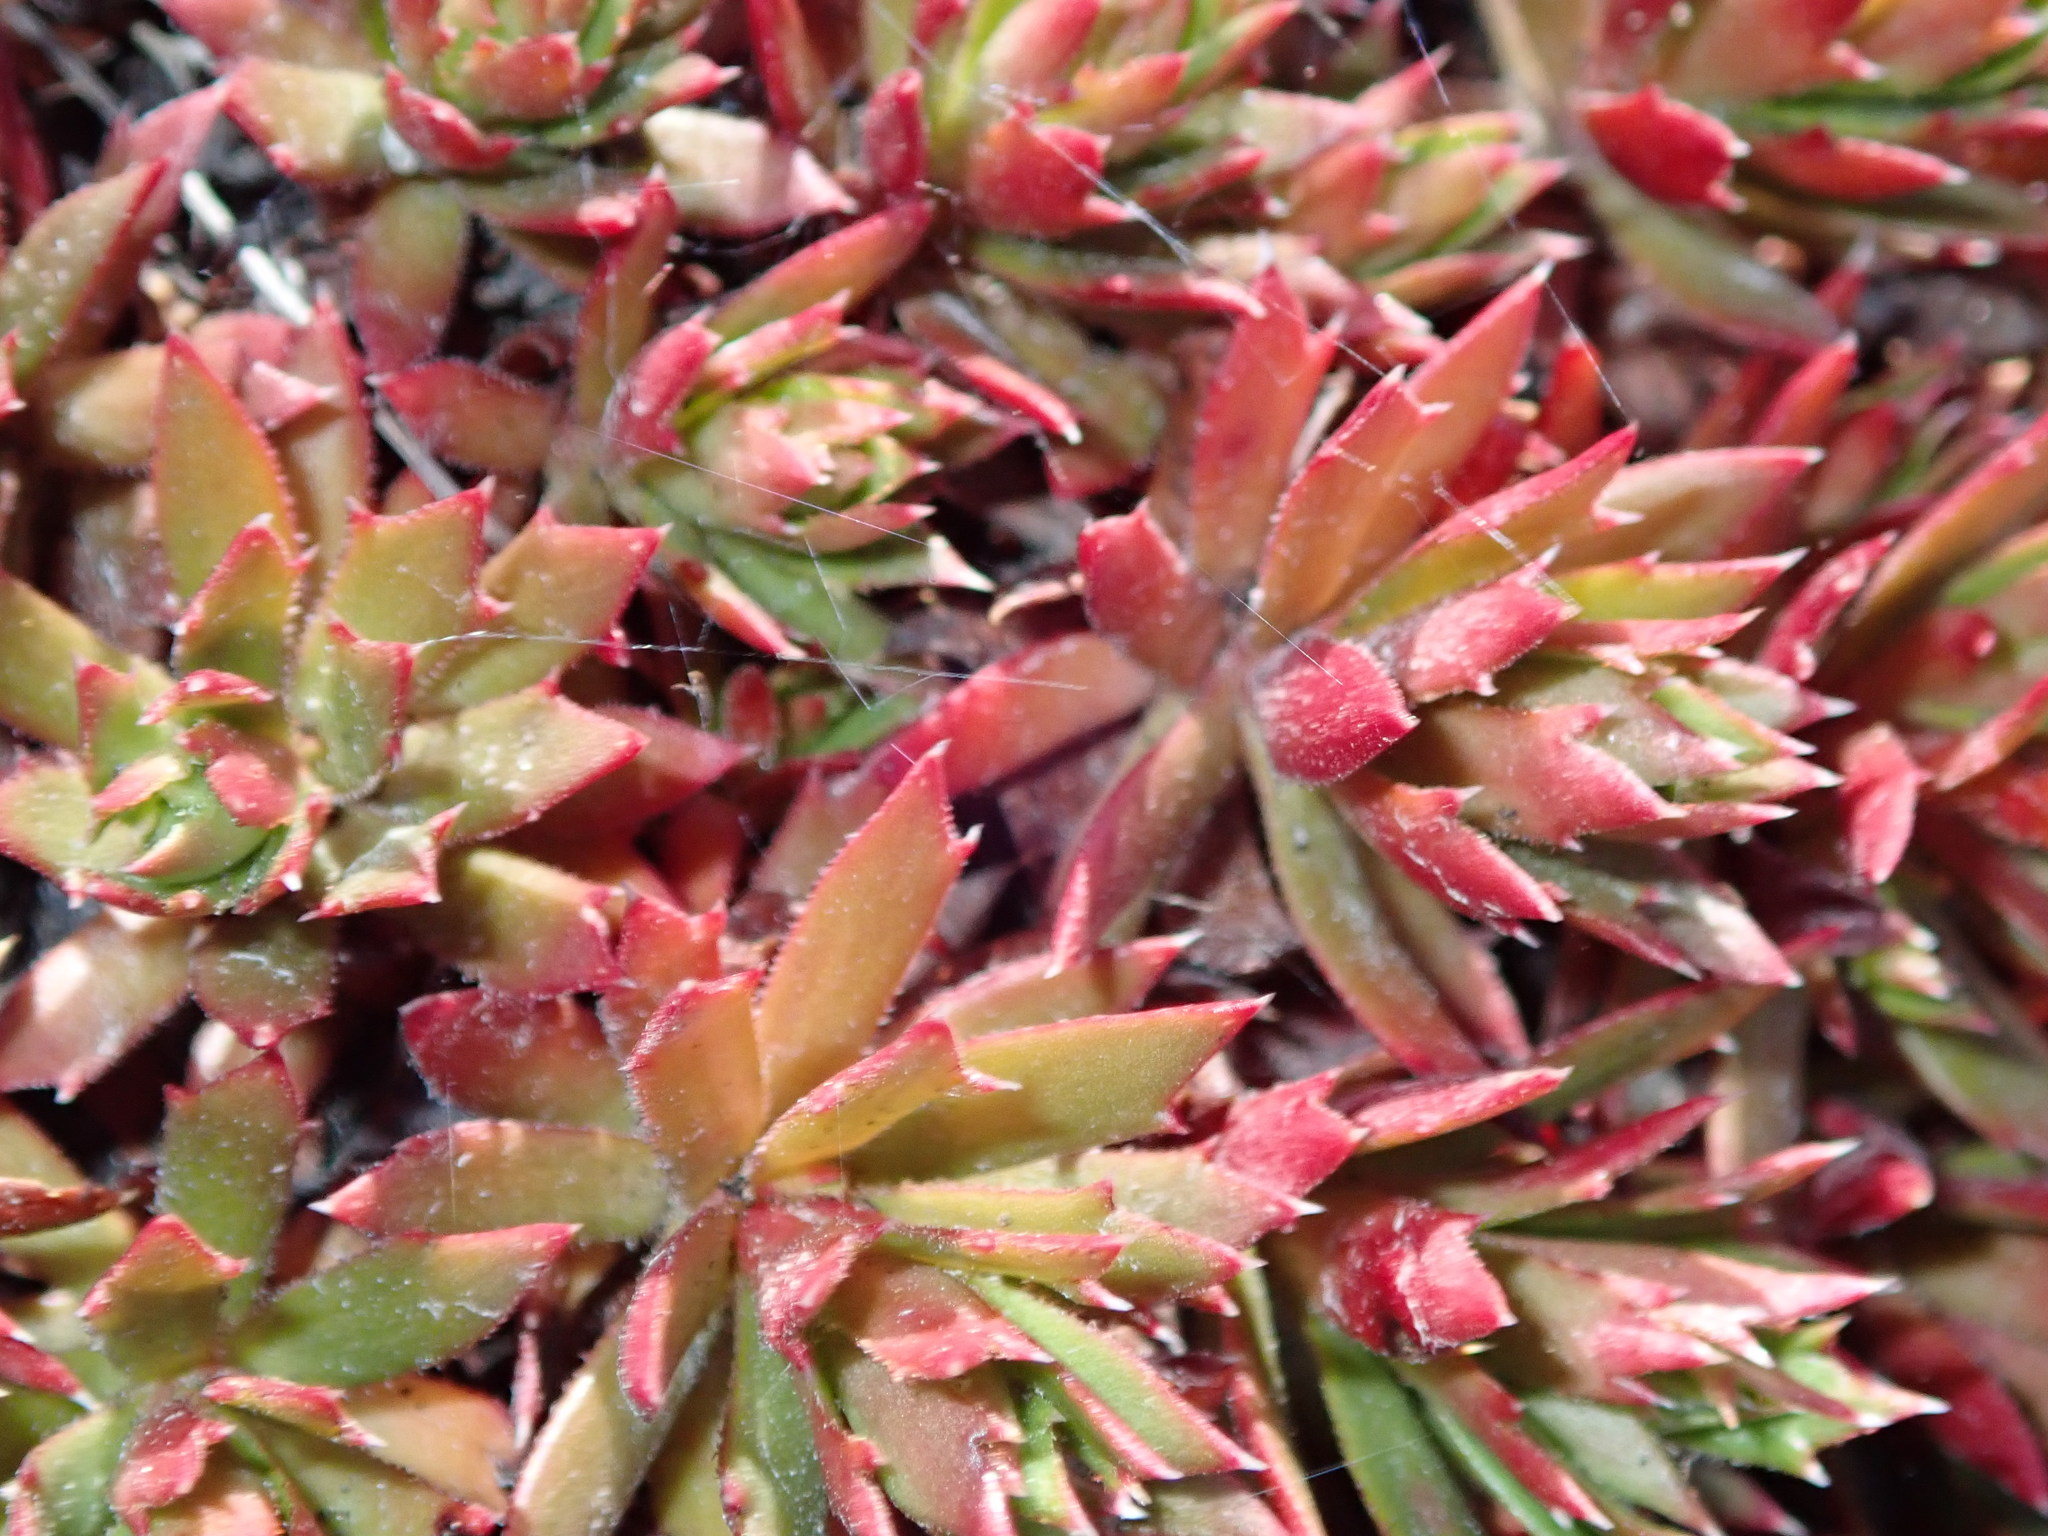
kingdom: Plantae
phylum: Tracheophyta
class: Magnoliopsida
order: Saxifragales
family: Saxifragaceae
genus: Saxifraga
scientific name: Saxifraga tricuspidata
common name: Prickly saxifrage
